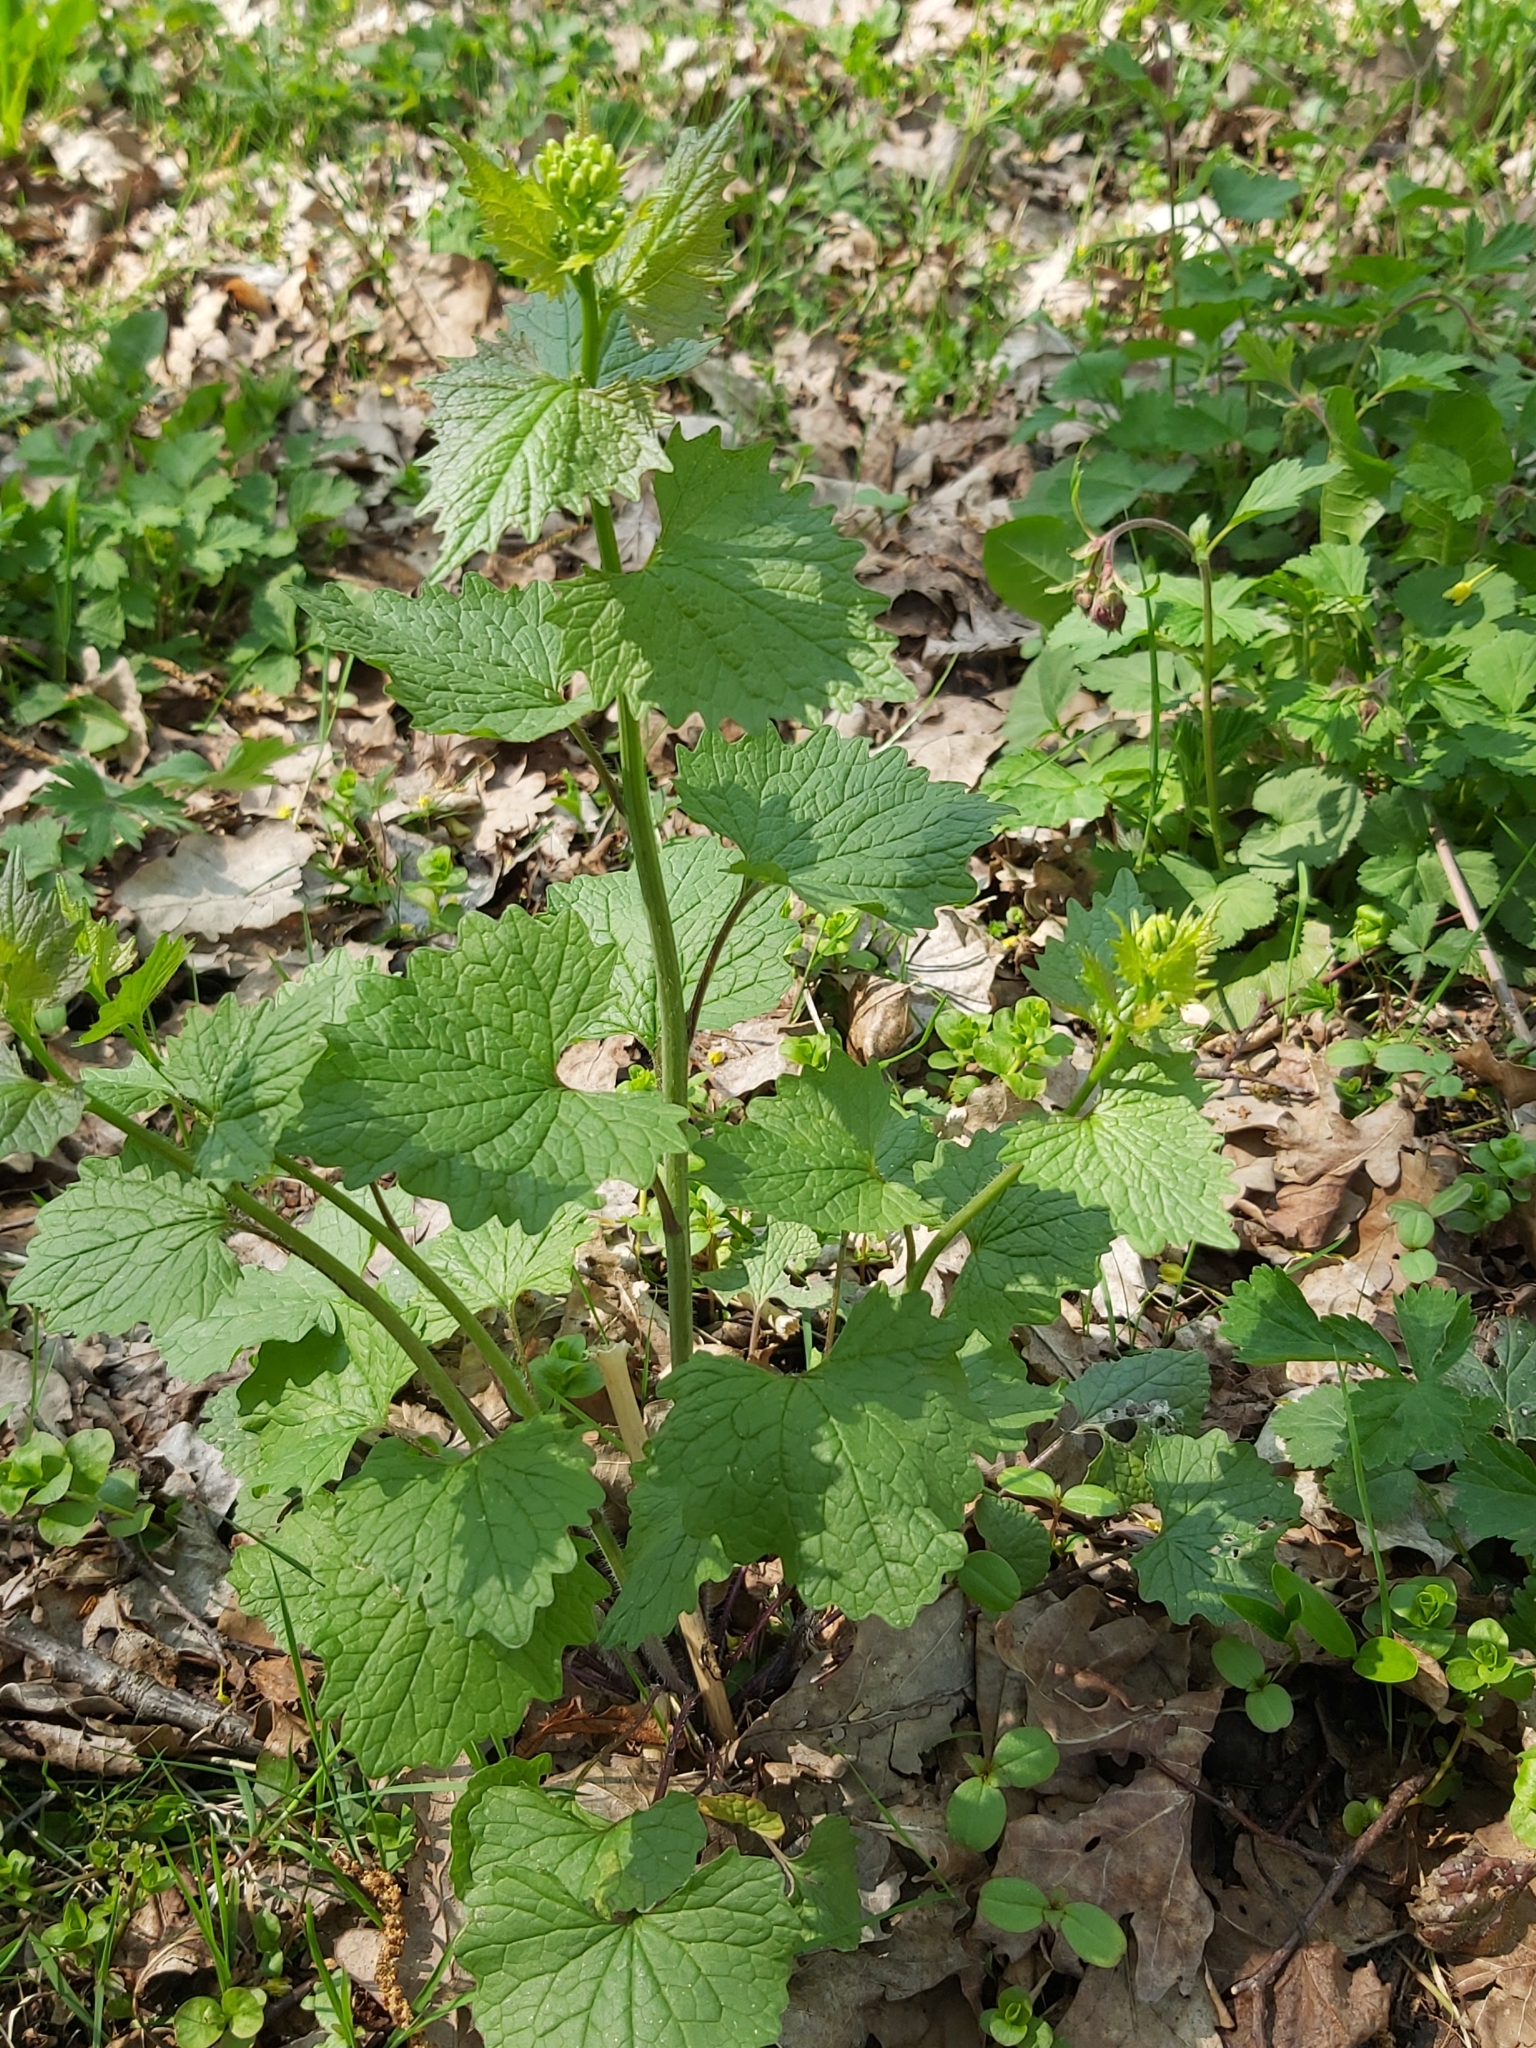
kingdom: Plantae
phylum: Tracheophyta
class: Magnoliopsida
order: Brassicales
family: Brassicaceae
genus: Alliaria
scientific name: Alliaria petiolata
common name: Garlic mustard
